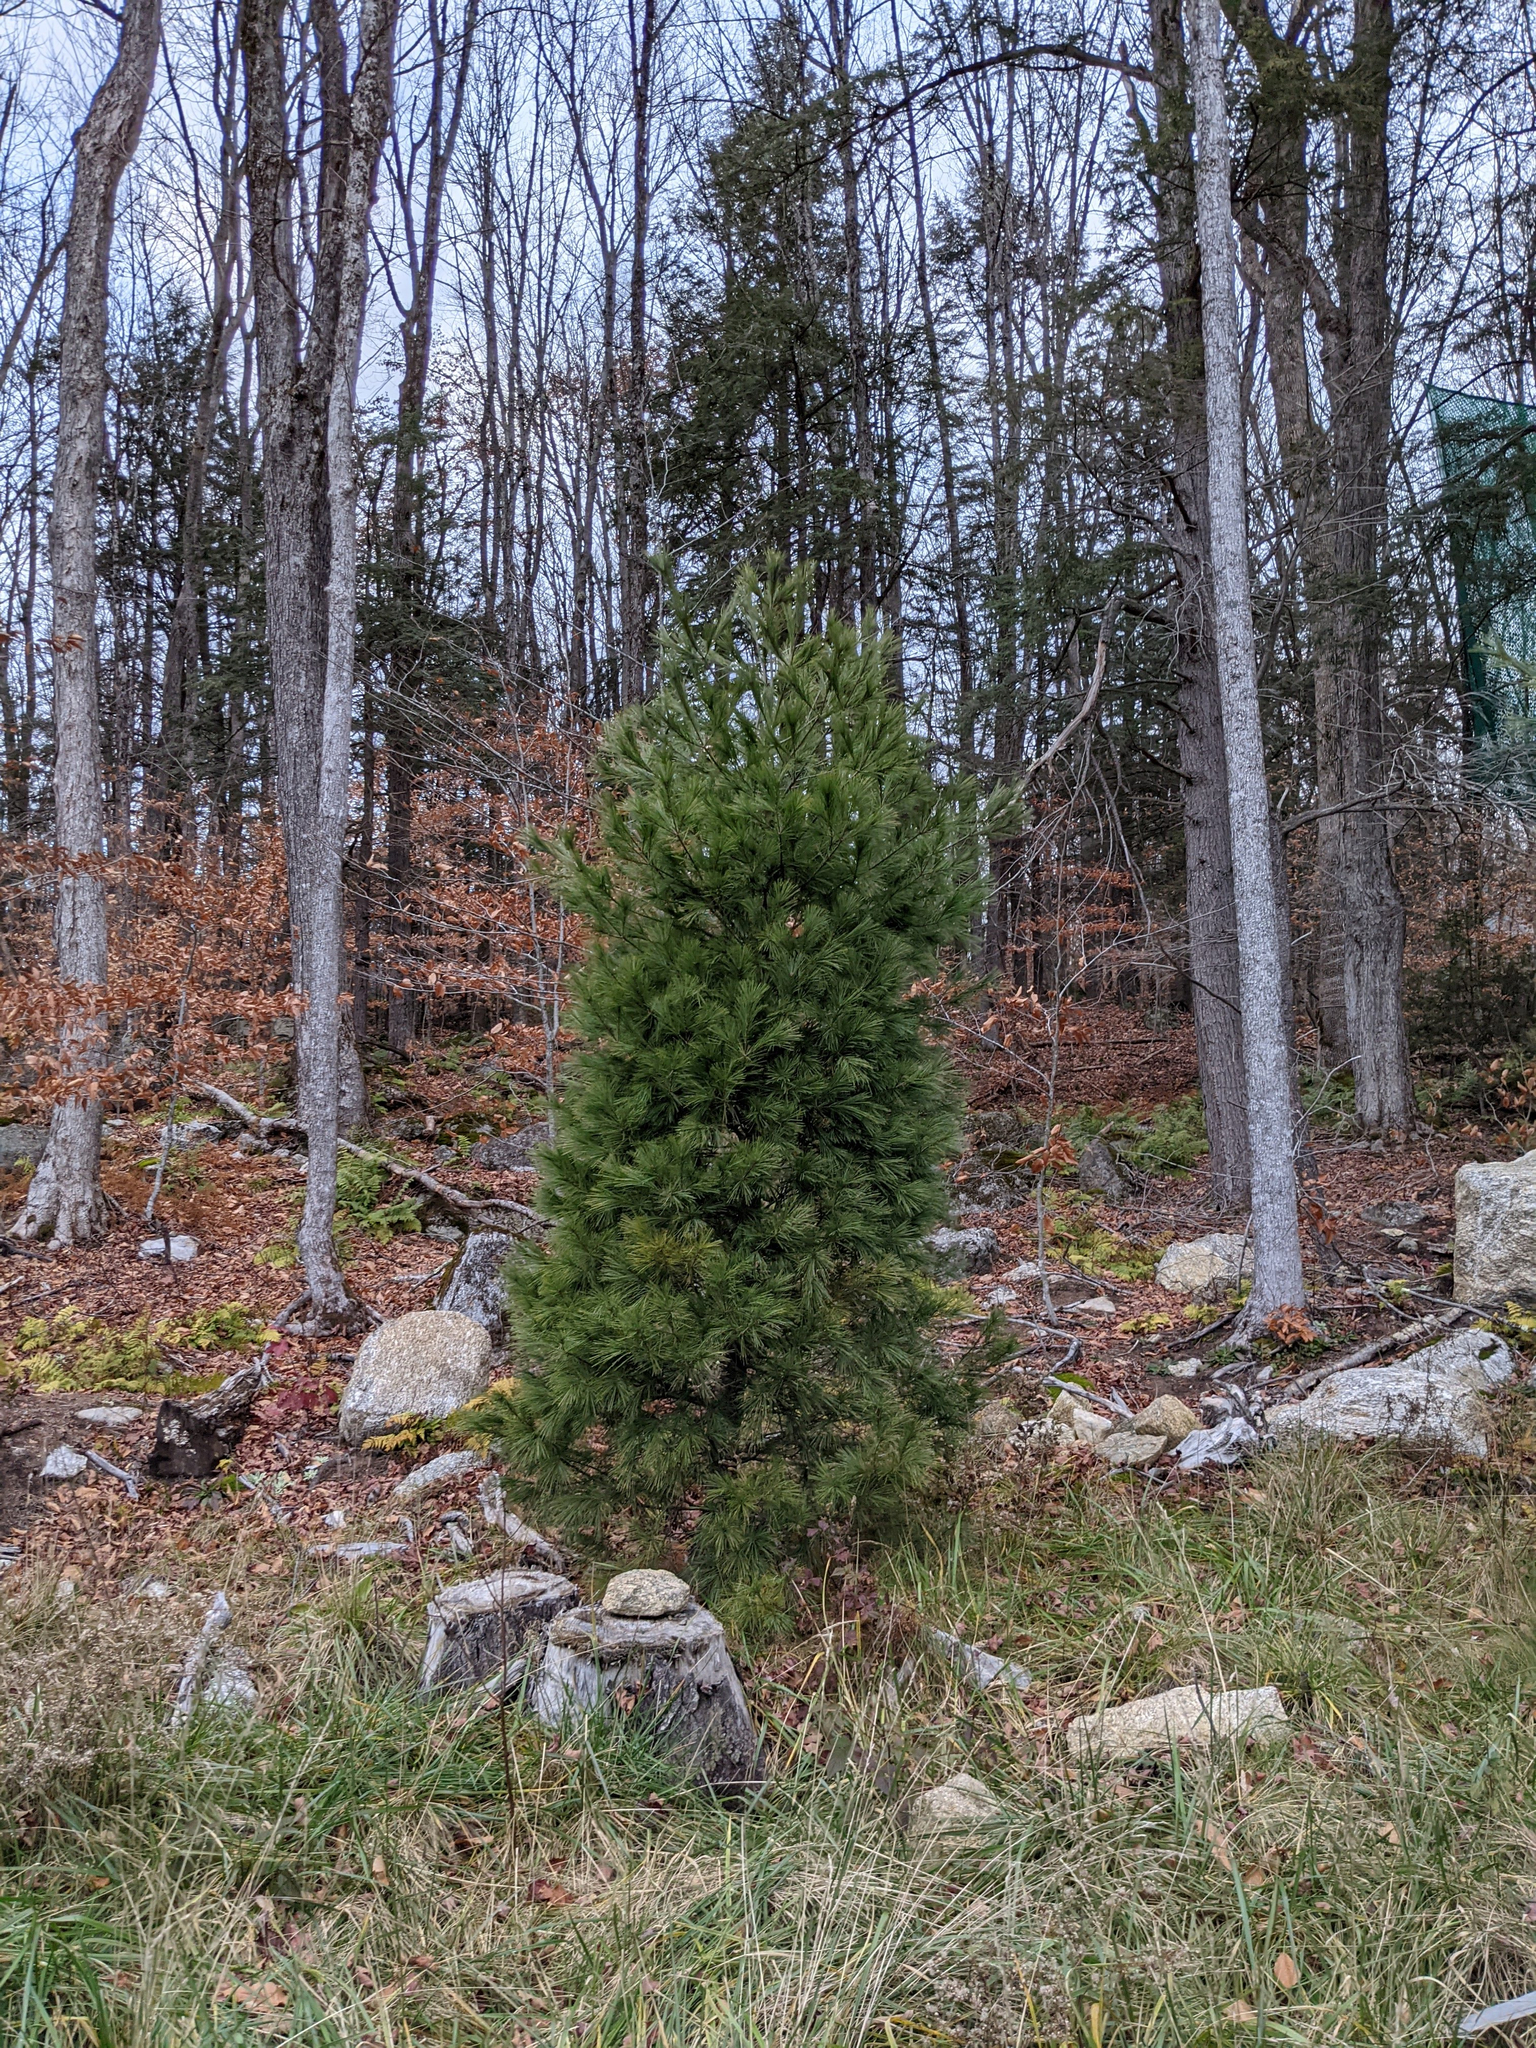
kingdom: Plantae
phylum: Tracheophyta
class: Pinopsida
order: Pinales
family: Pinaceae
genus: Pinus
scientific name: Pinus strobus
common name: Weymouth pine
